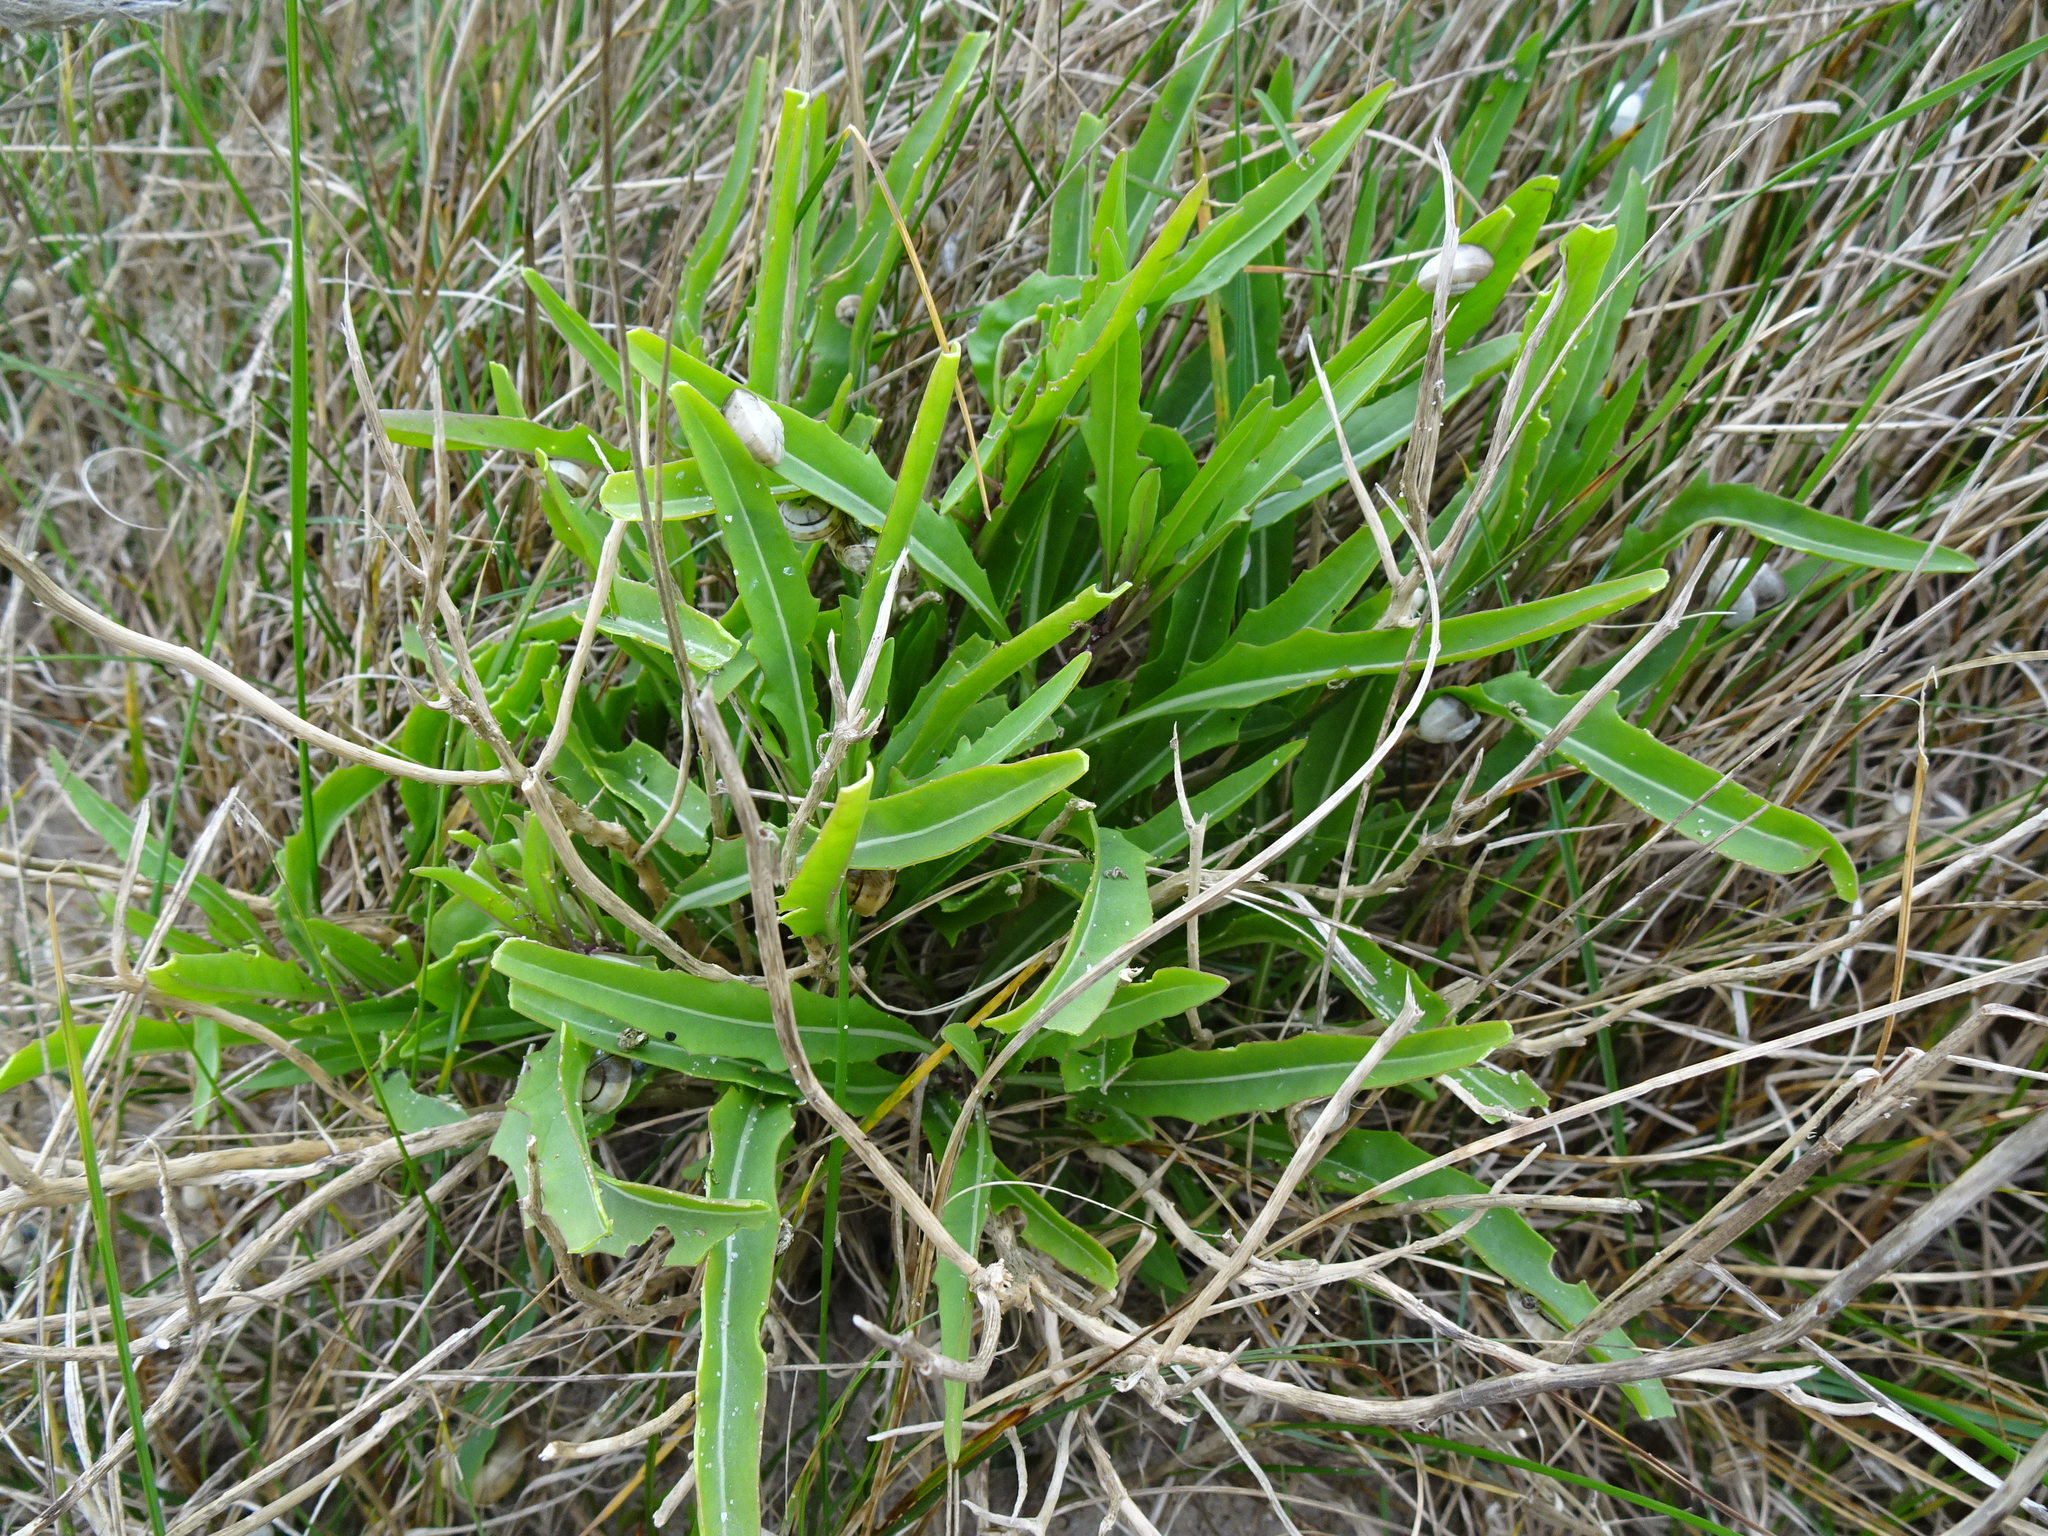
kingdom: Plantae
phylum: Tracheophyta
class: Magnoliopsida
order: Brassicales
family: Brassicaceae
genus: Diplotaxis
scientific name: Diplotaxis tenuifolia
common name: Perennial wall-rocket
